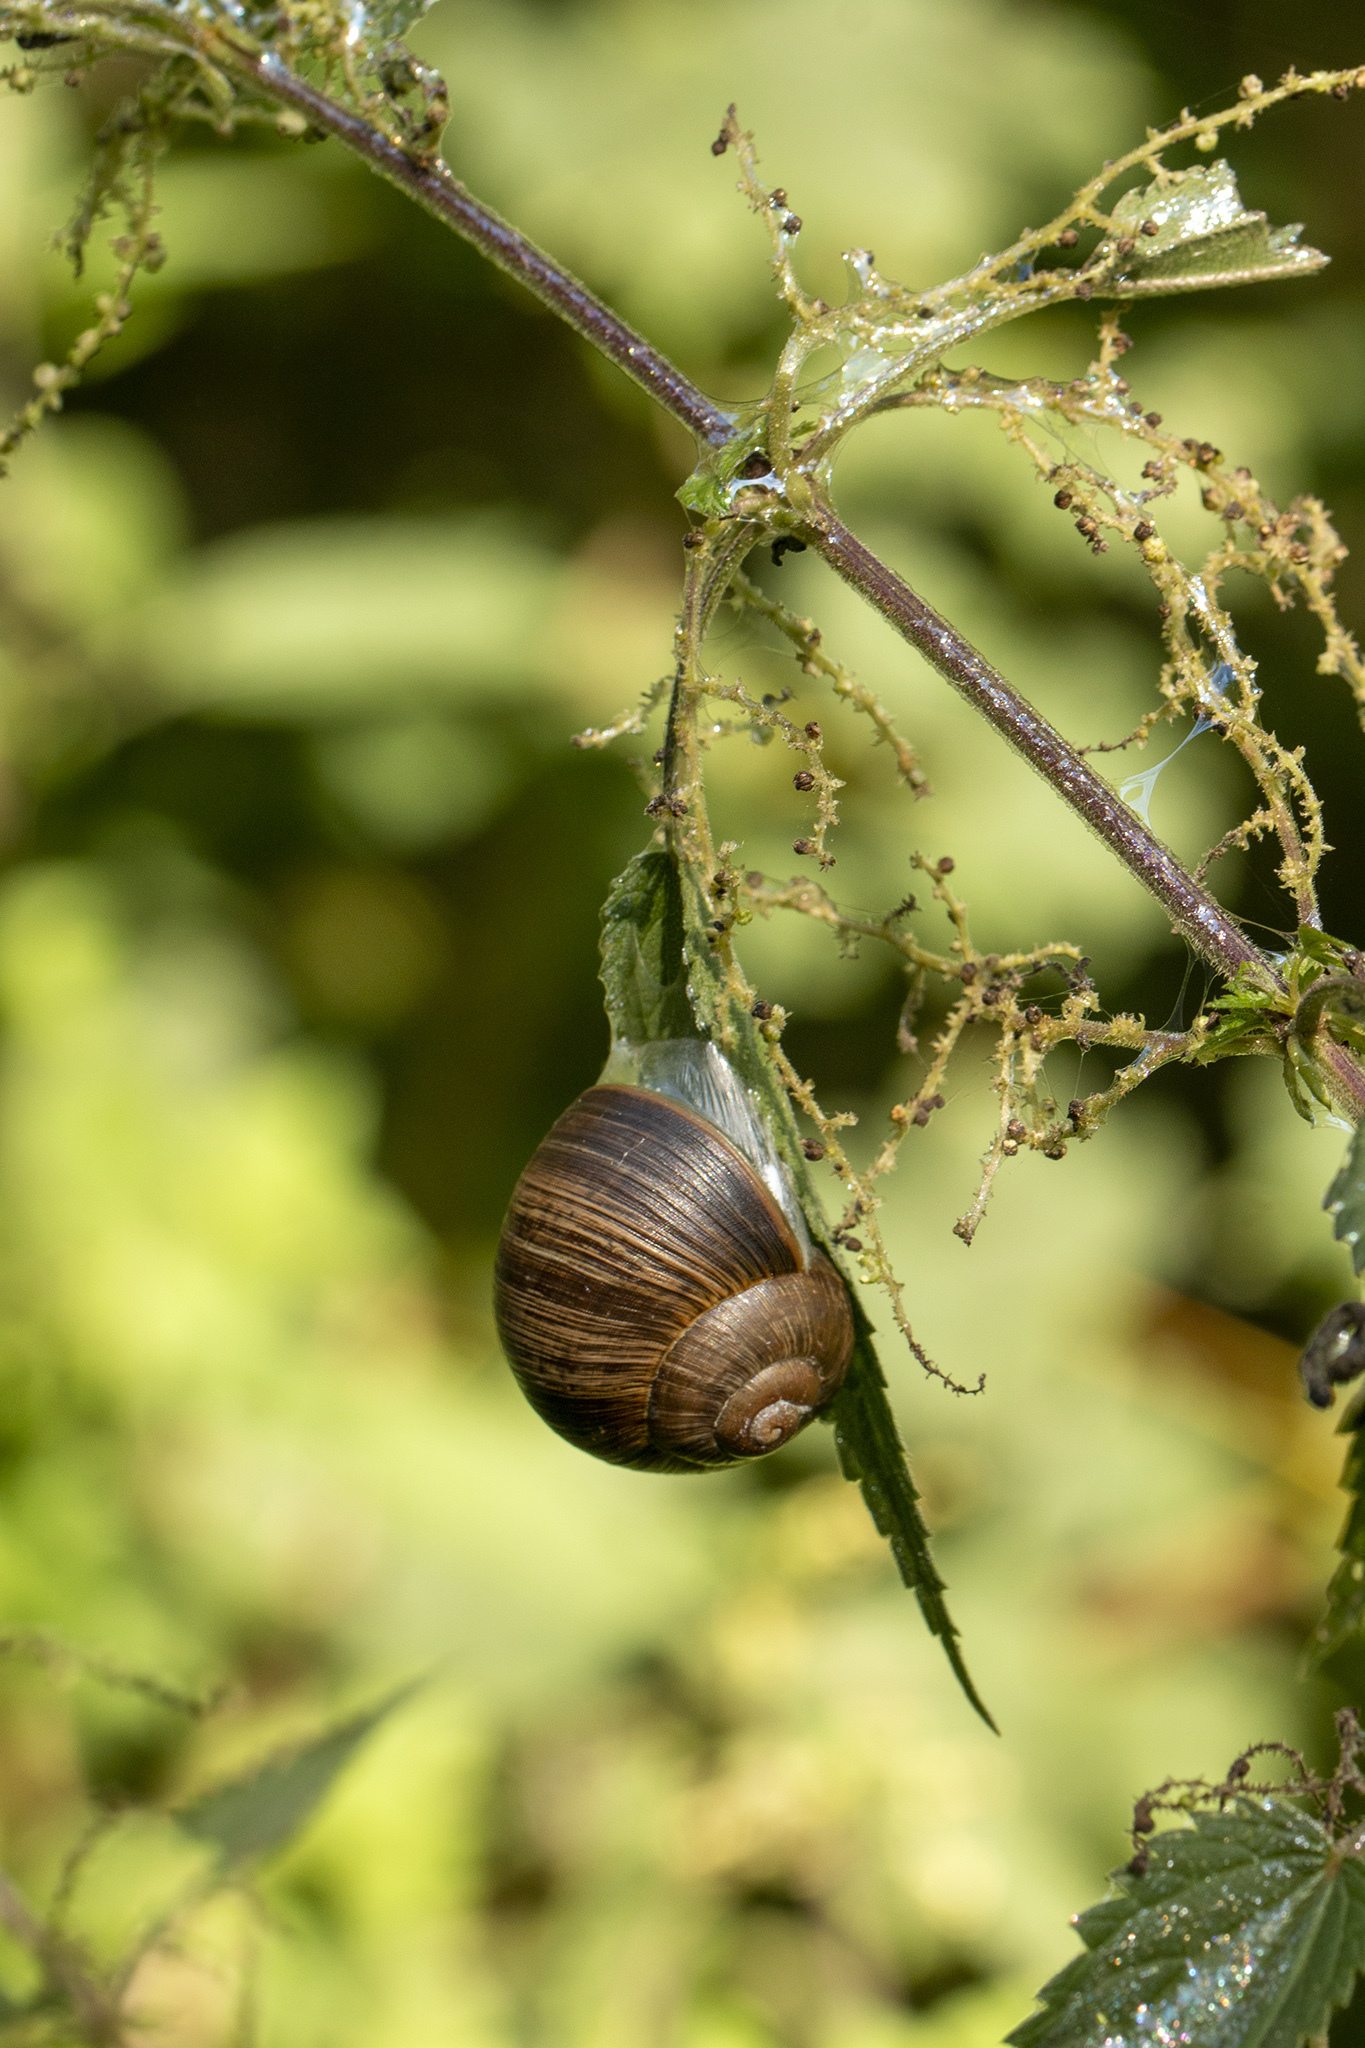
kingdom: Animalia
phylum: Mollusca
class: Gastropoda
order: Stylommatophora
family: Helicidae
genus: Helix
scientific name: Helix pomatia
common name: Roman snail
